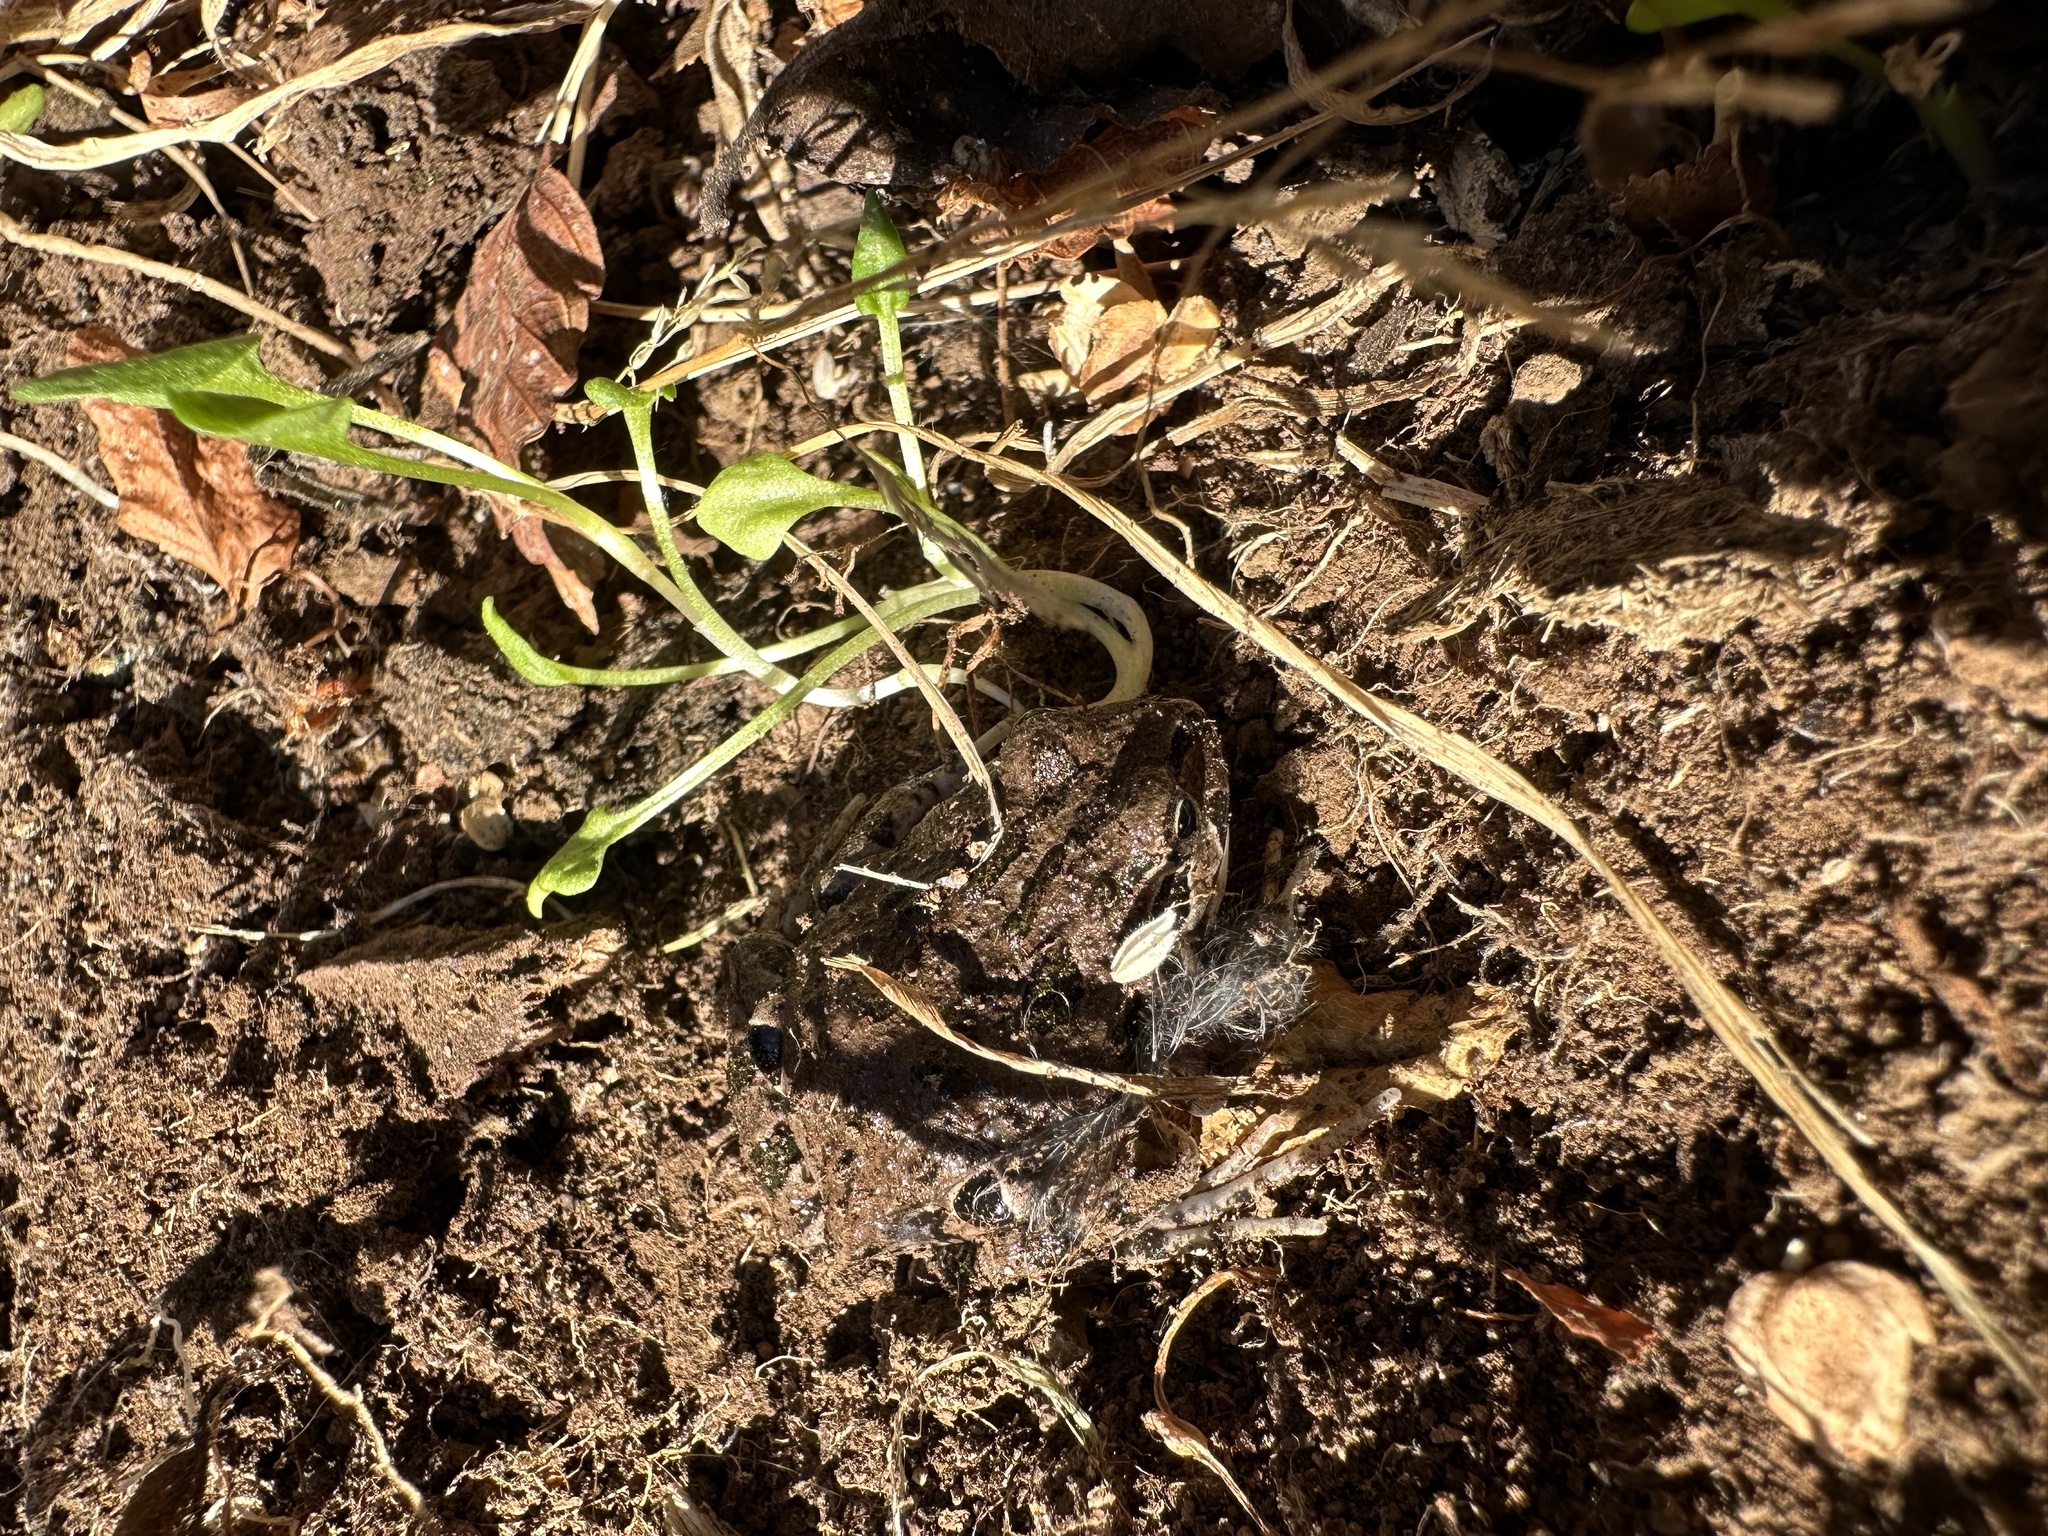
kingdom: Animalia
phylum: Chordata
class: Amphibia
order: Anura
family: Leptodactylidae
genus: Pleurodema
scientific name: Pleurodema thaul
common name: Chile four-eyed frog
